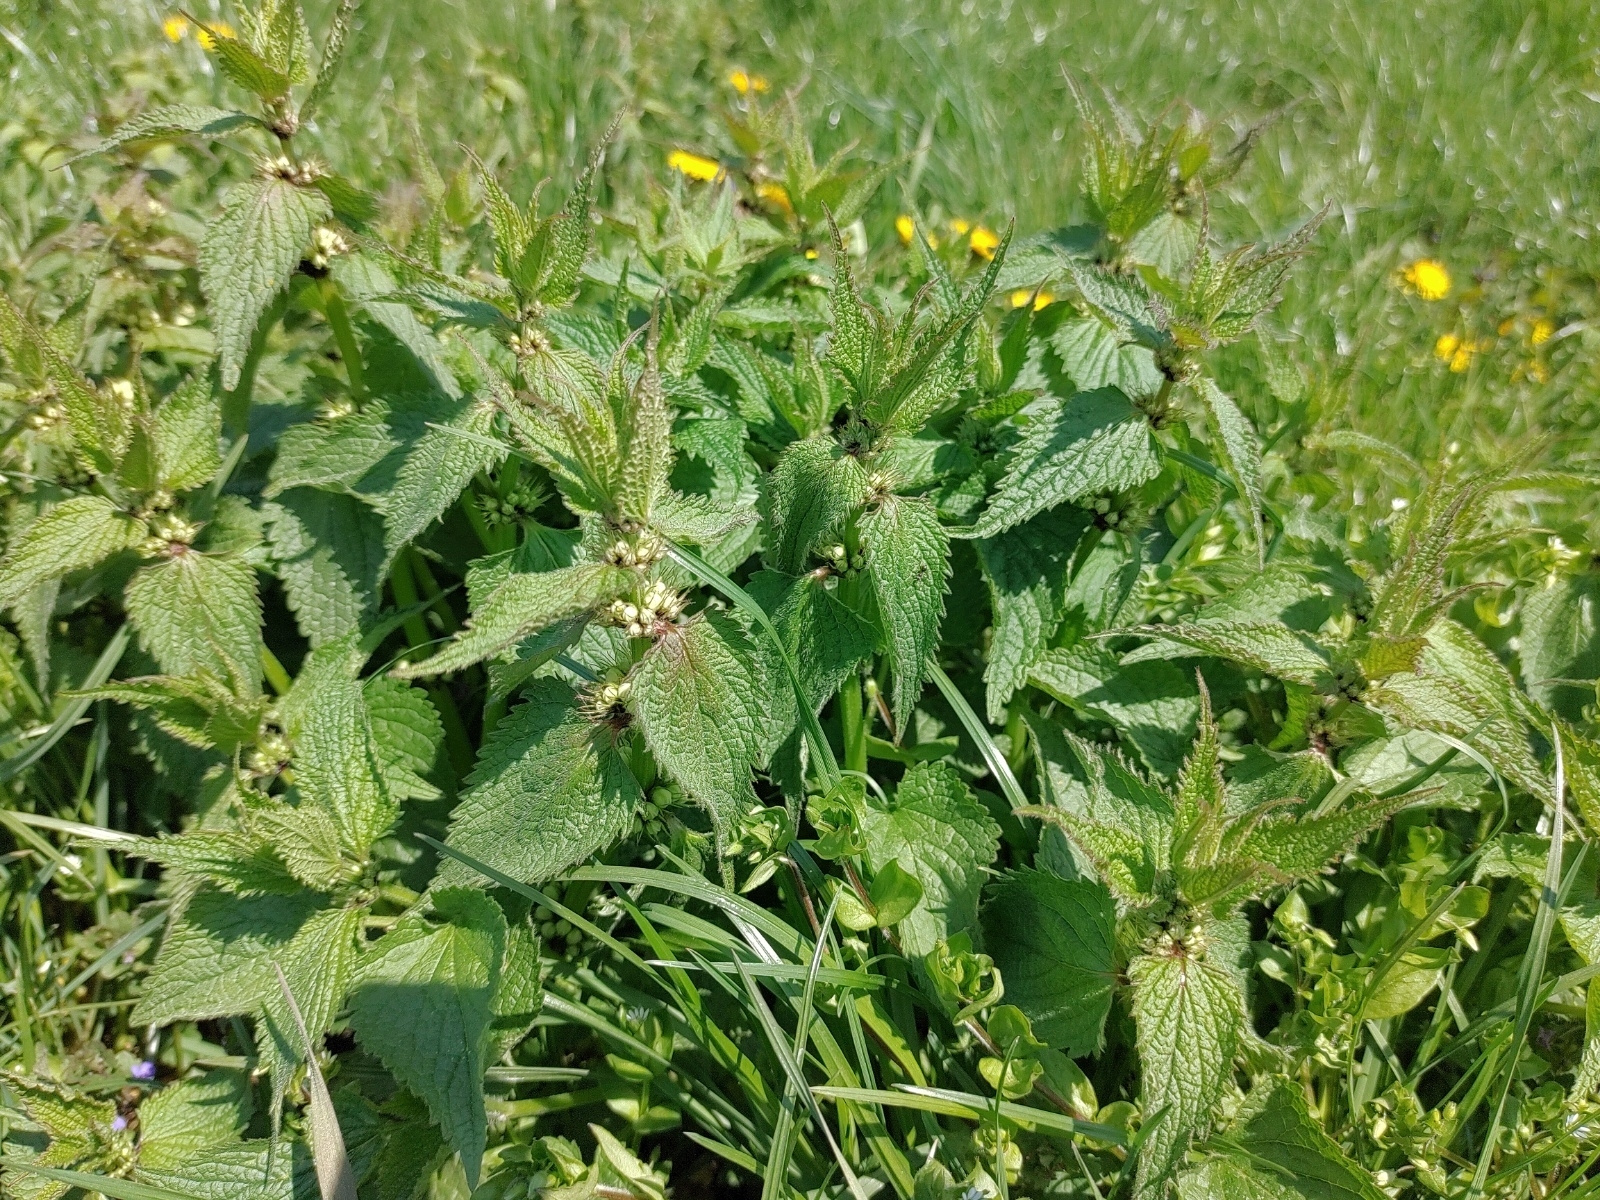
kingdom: Plantae
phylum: Tracheophyta
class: Magnoliopsida
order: Lamiales
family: Lamiaceae
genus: Lamium
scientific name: Lamium album
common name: White dead-nettle
